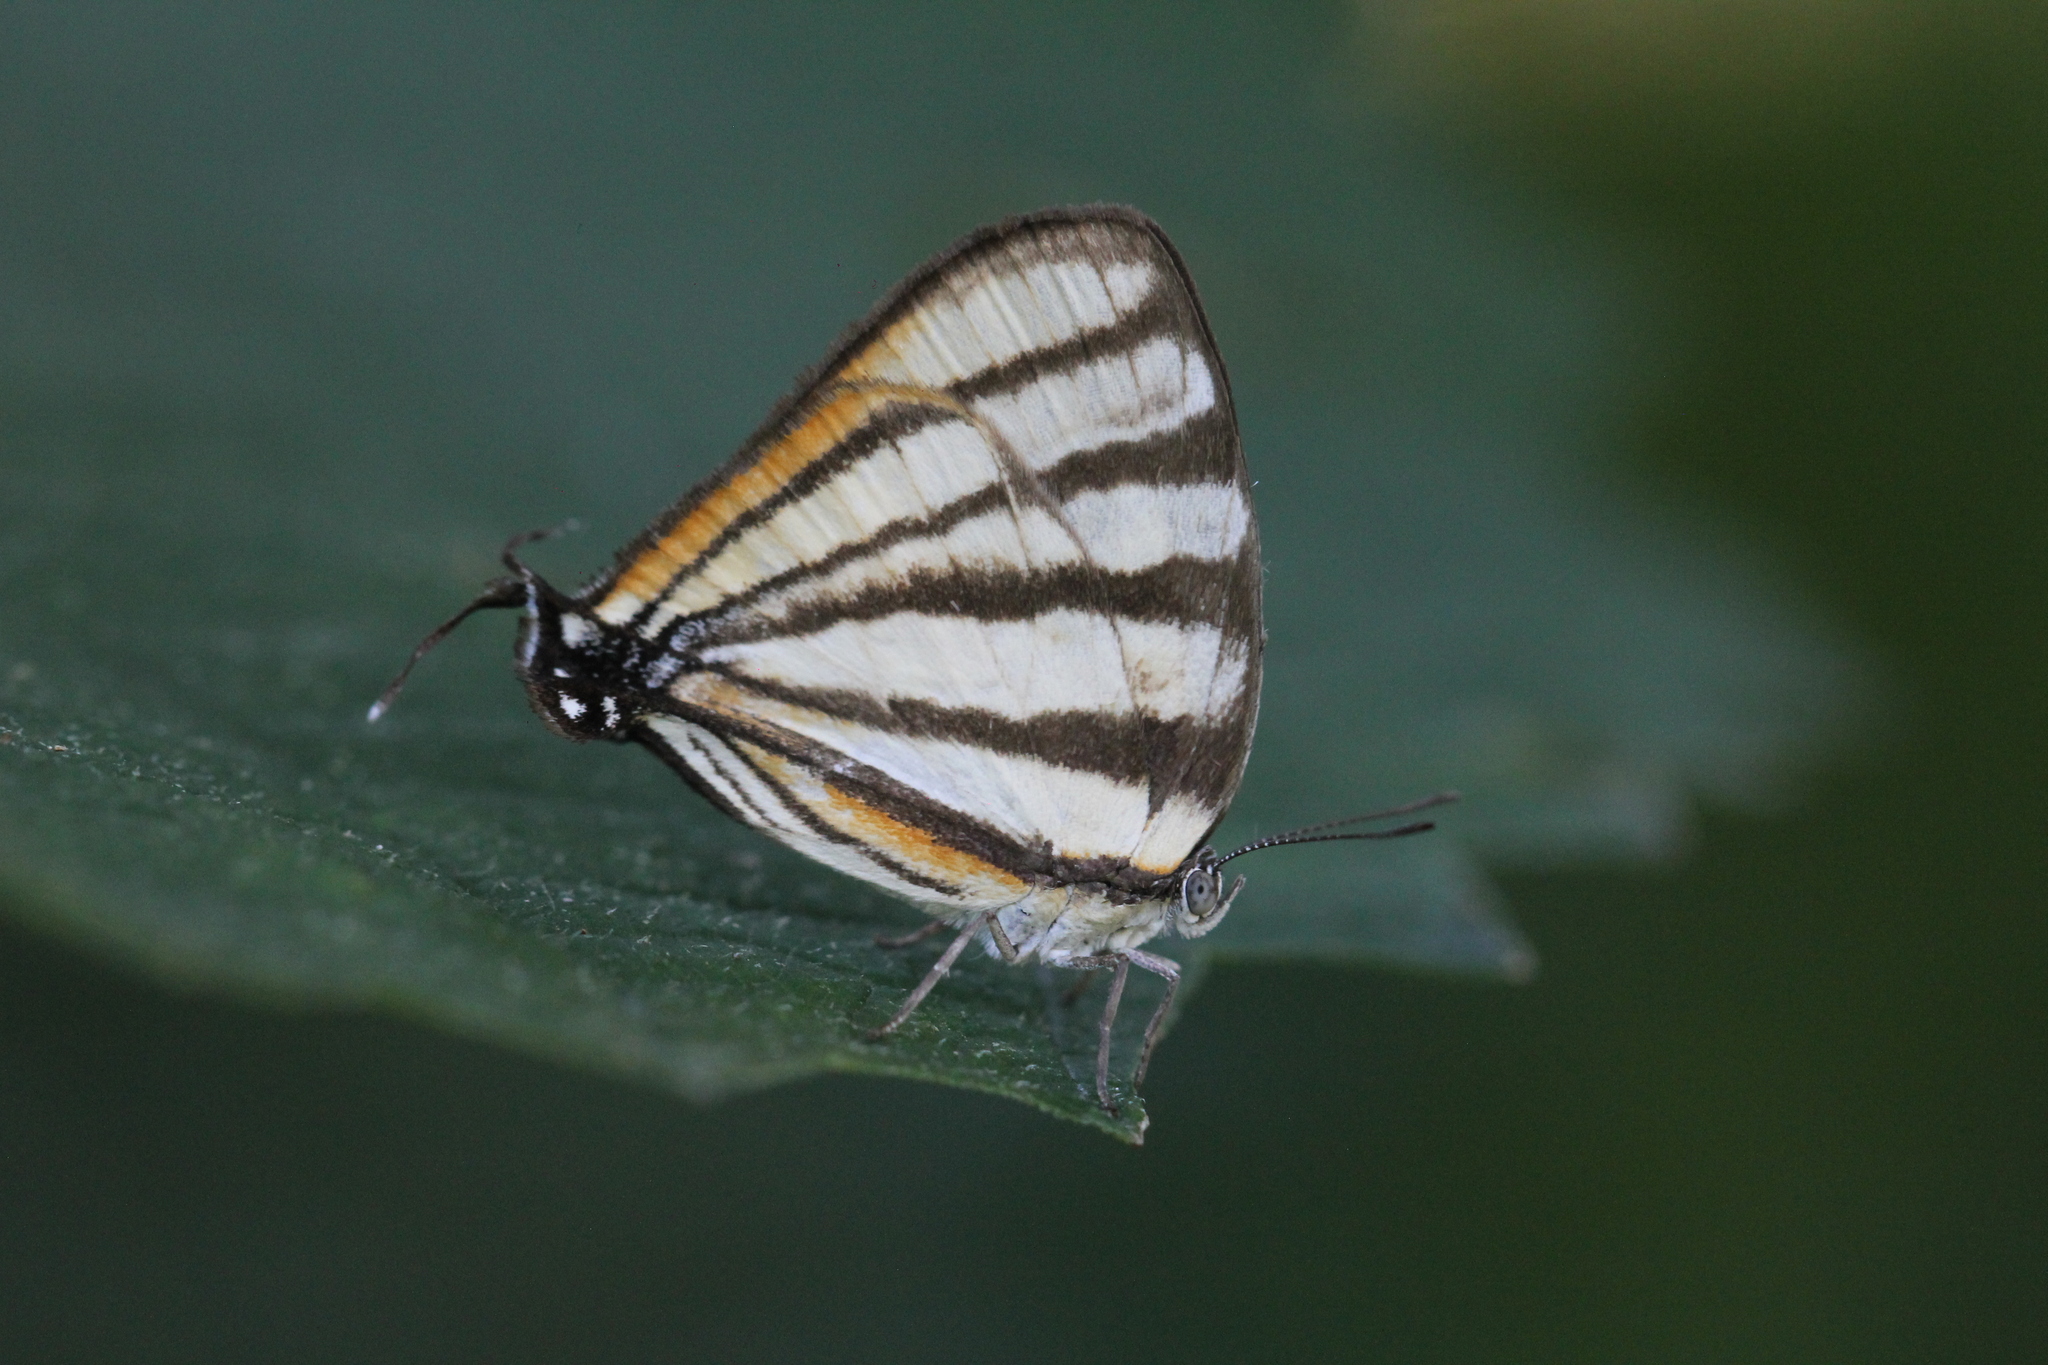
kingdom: Animalia
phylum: Arthropoda
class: Insecta
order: Lepidoptera
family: Lycaenidae
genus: Arawacus
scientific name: Arawacus separata
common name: Separated stripestreak
